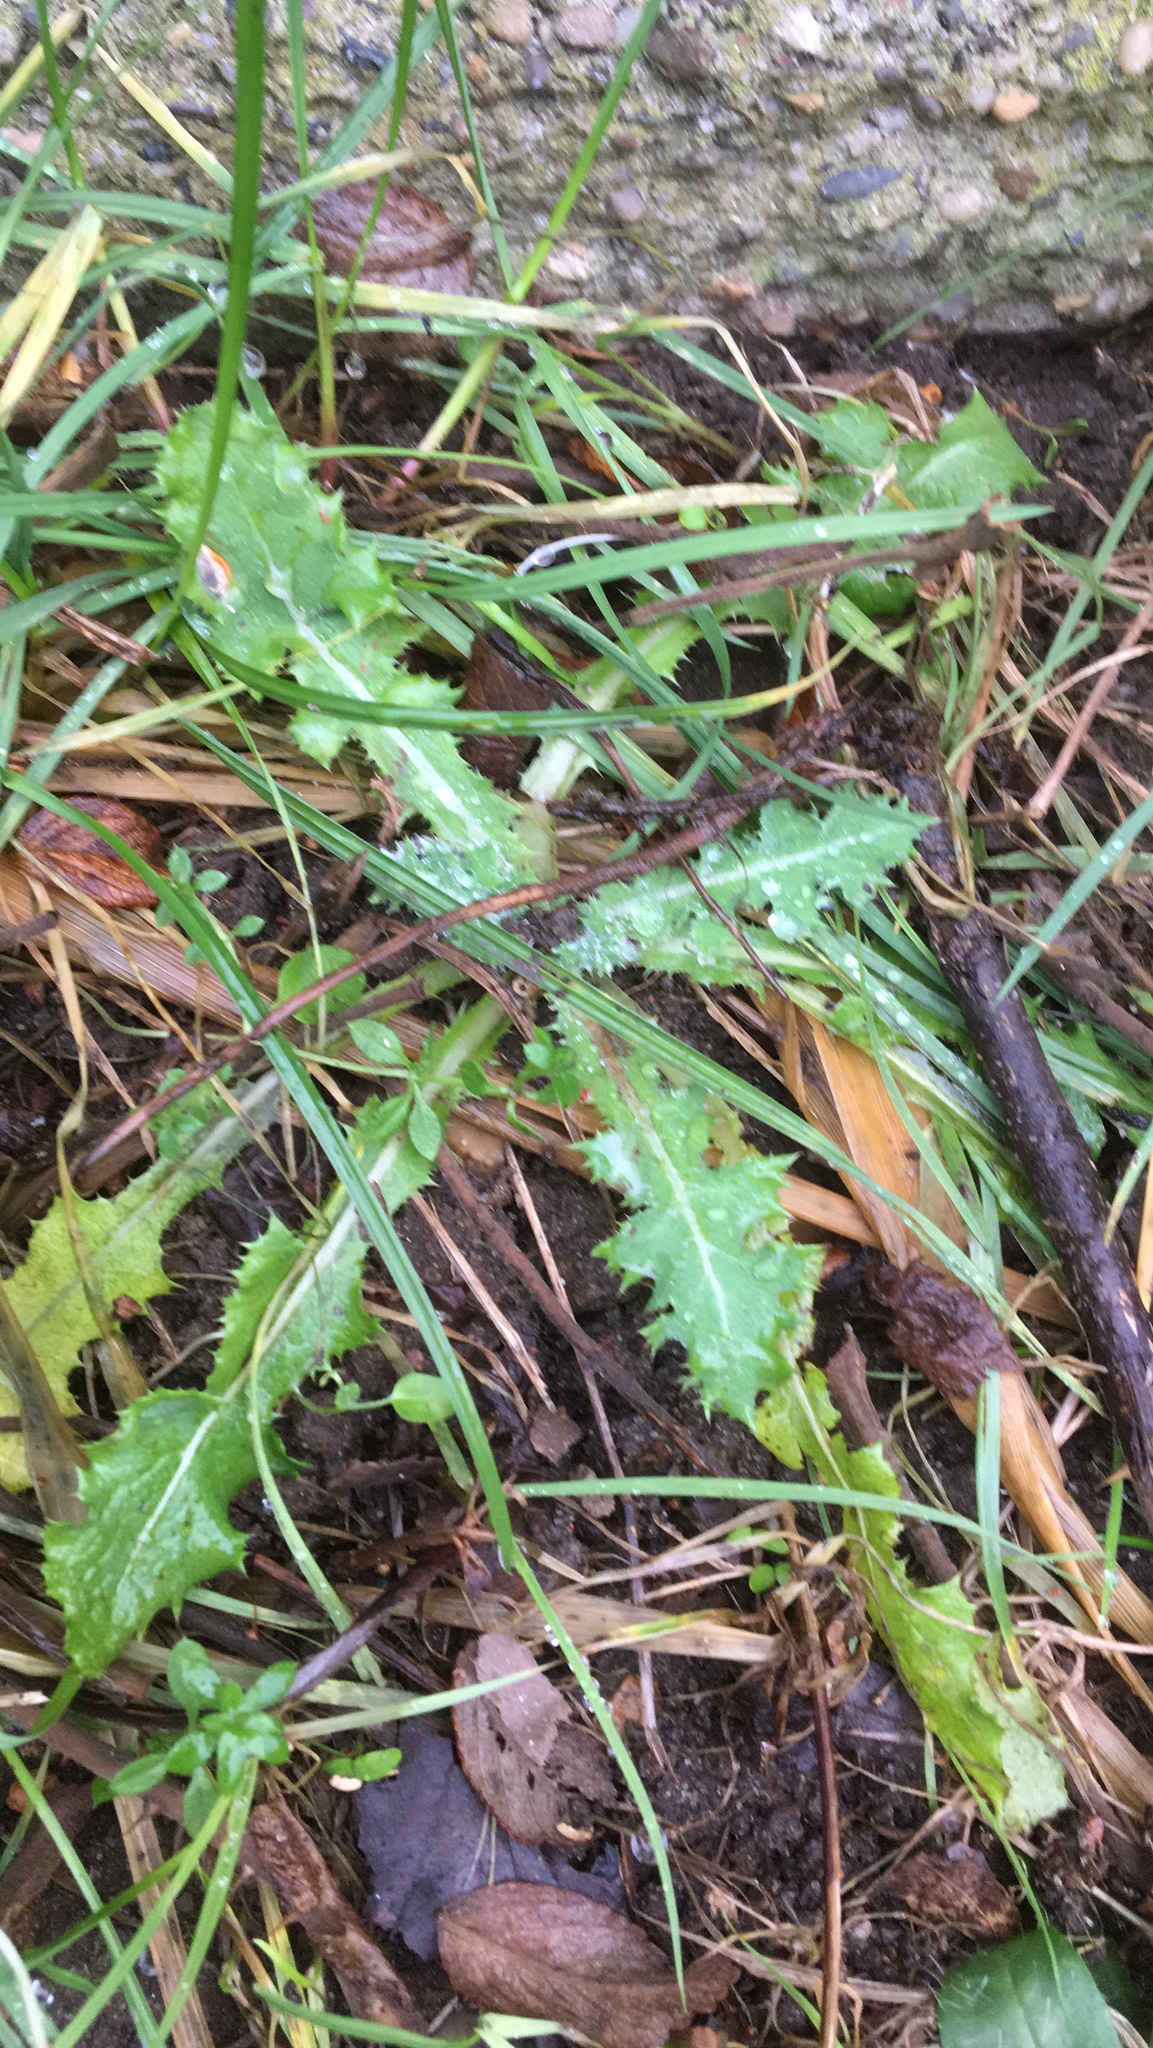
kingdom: Plantae
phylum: Tracheophyta
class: Magnoliopsida
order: Asterales
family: Asteraceae
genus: Sonchus
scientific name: Sonchus asper
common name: Prickly sow-thistle
